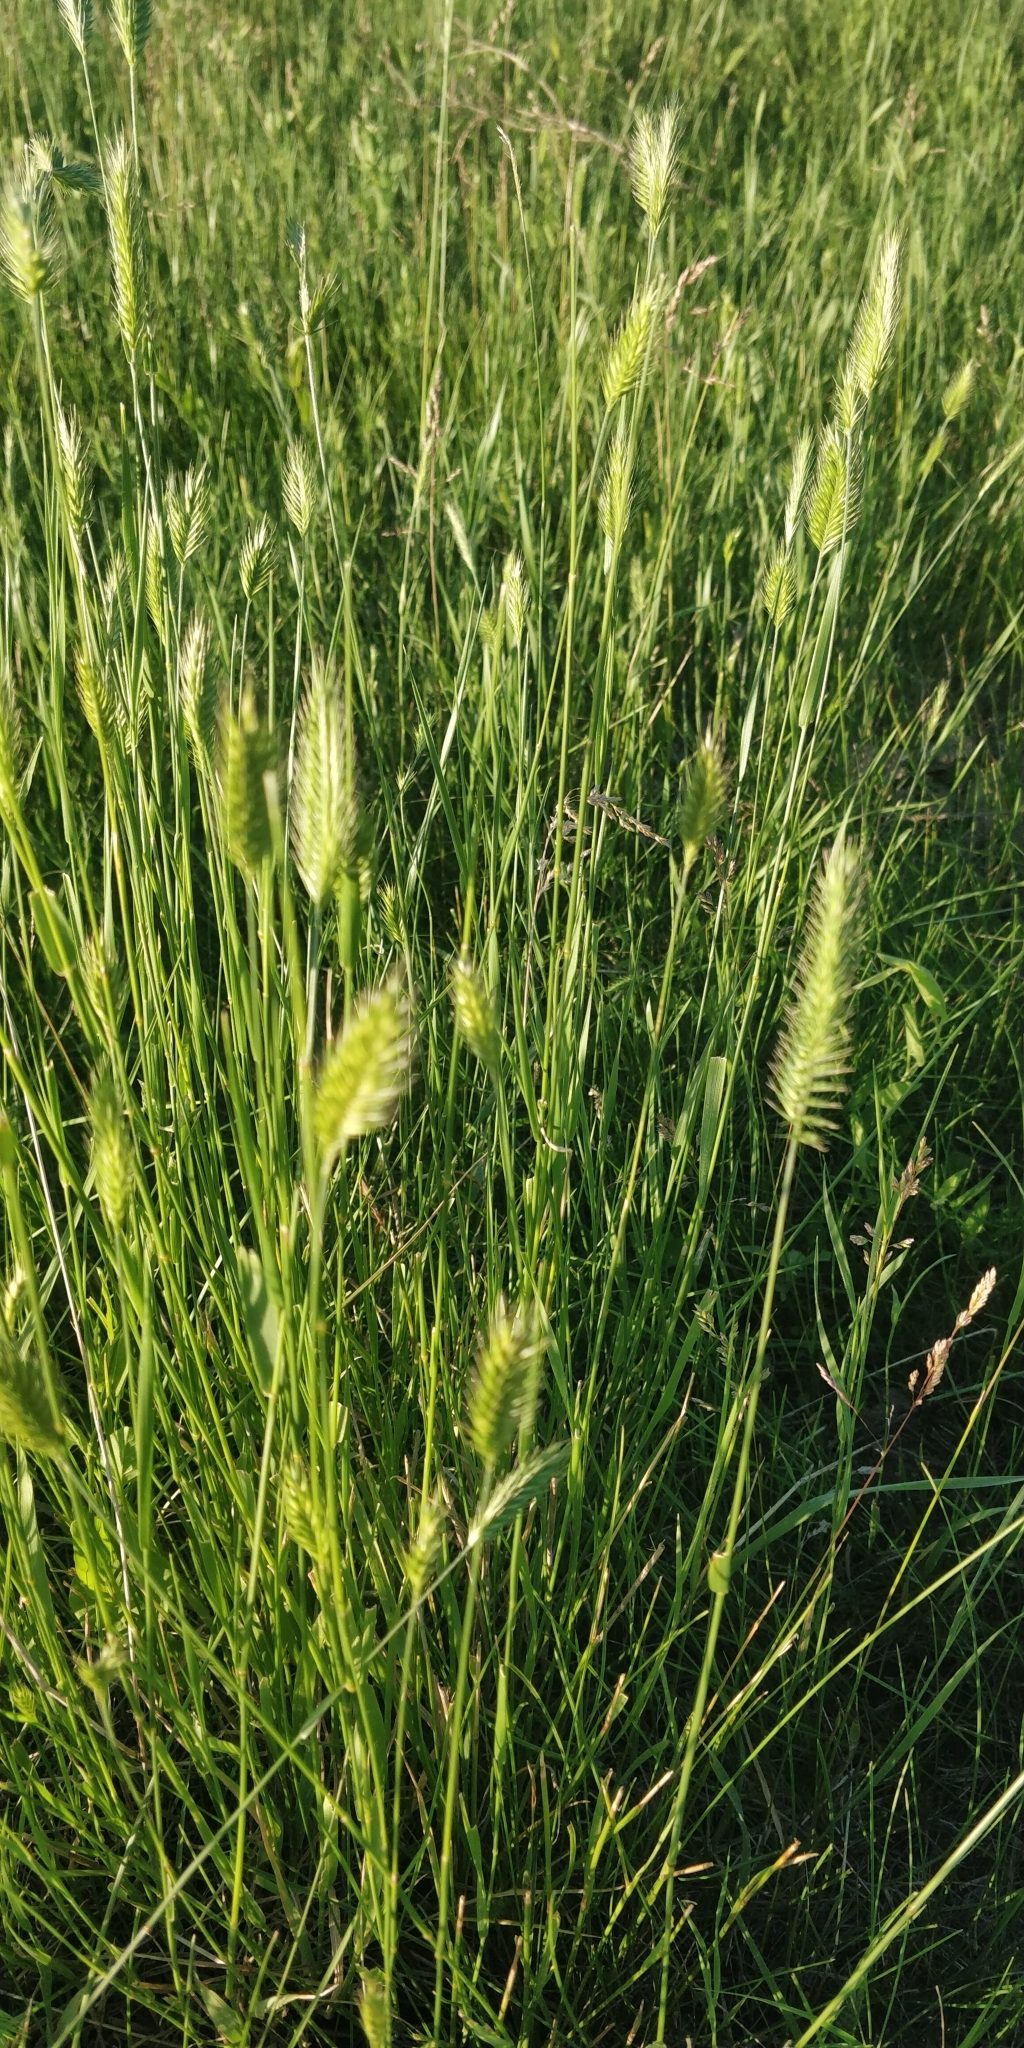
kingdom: Plantae
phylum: Tracheophyta
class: Liliopsida
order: Poales
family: Poaceae
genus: Agropyron
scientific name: Agropyron cristatum
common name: Crested wheatgrass
